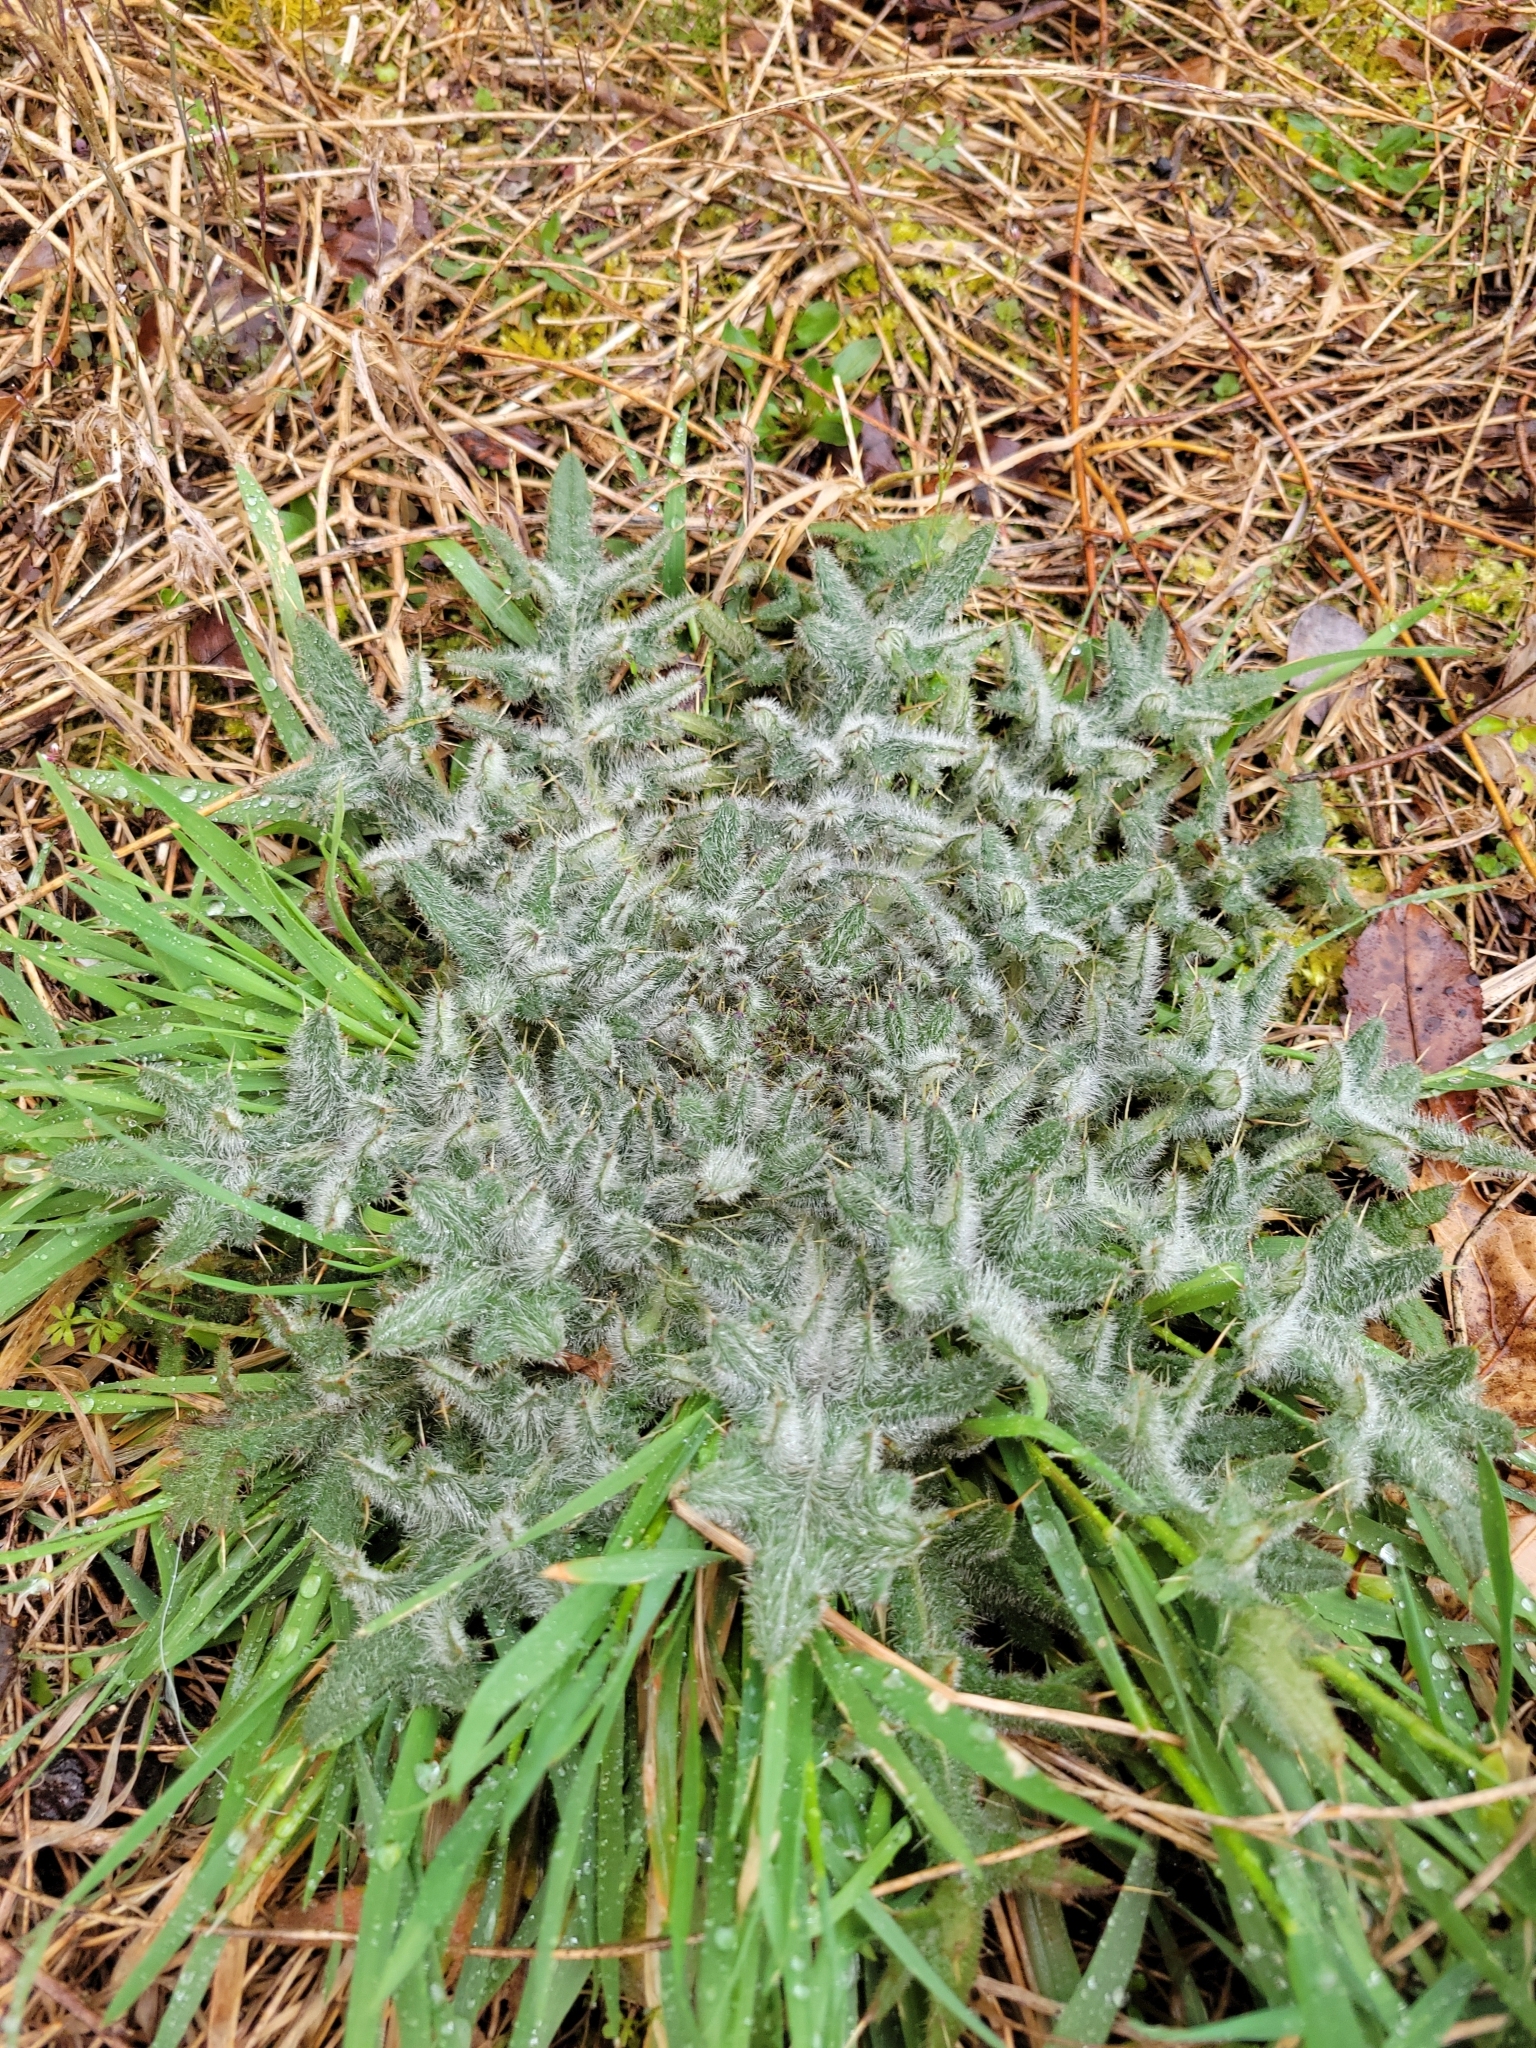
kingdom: Plantae
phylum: Tracheophyta
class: Magnoliopsida
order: Asterales
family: Asteraceae
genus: Cirsium
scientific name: Cirsium vulgare
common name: Bull thistle
